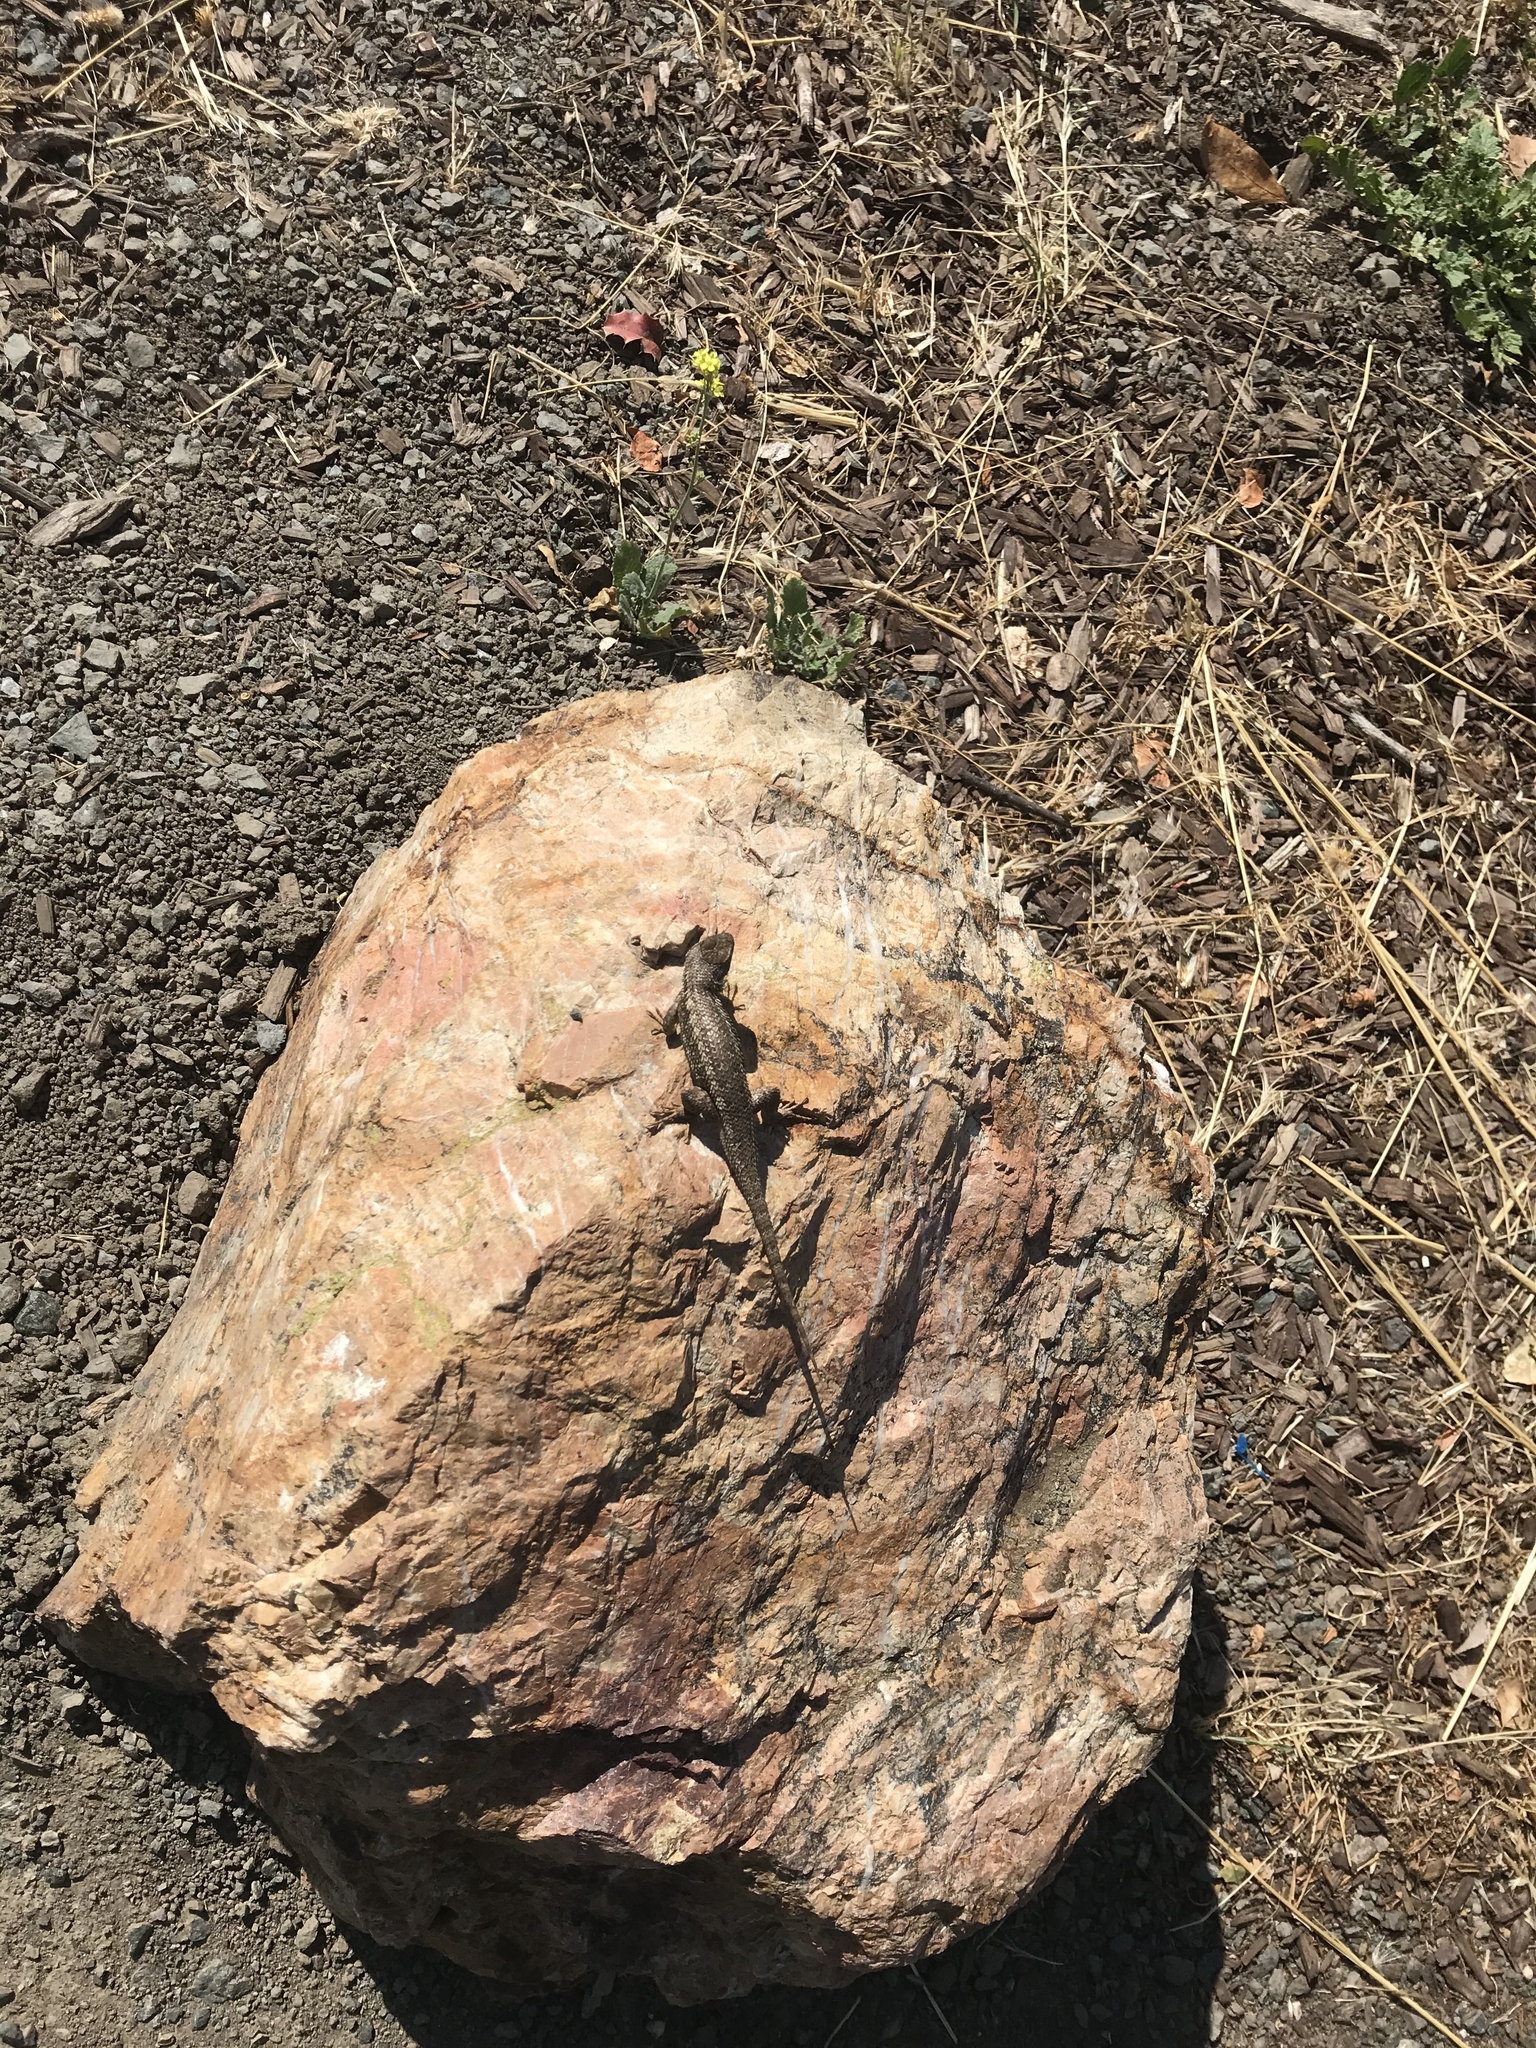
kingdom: Animalia
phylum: Chordata
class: Squamata
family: Phrynosomatidae
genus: Sceloporus
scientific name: Sceloporus occidentalis
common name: Western fence lizard
